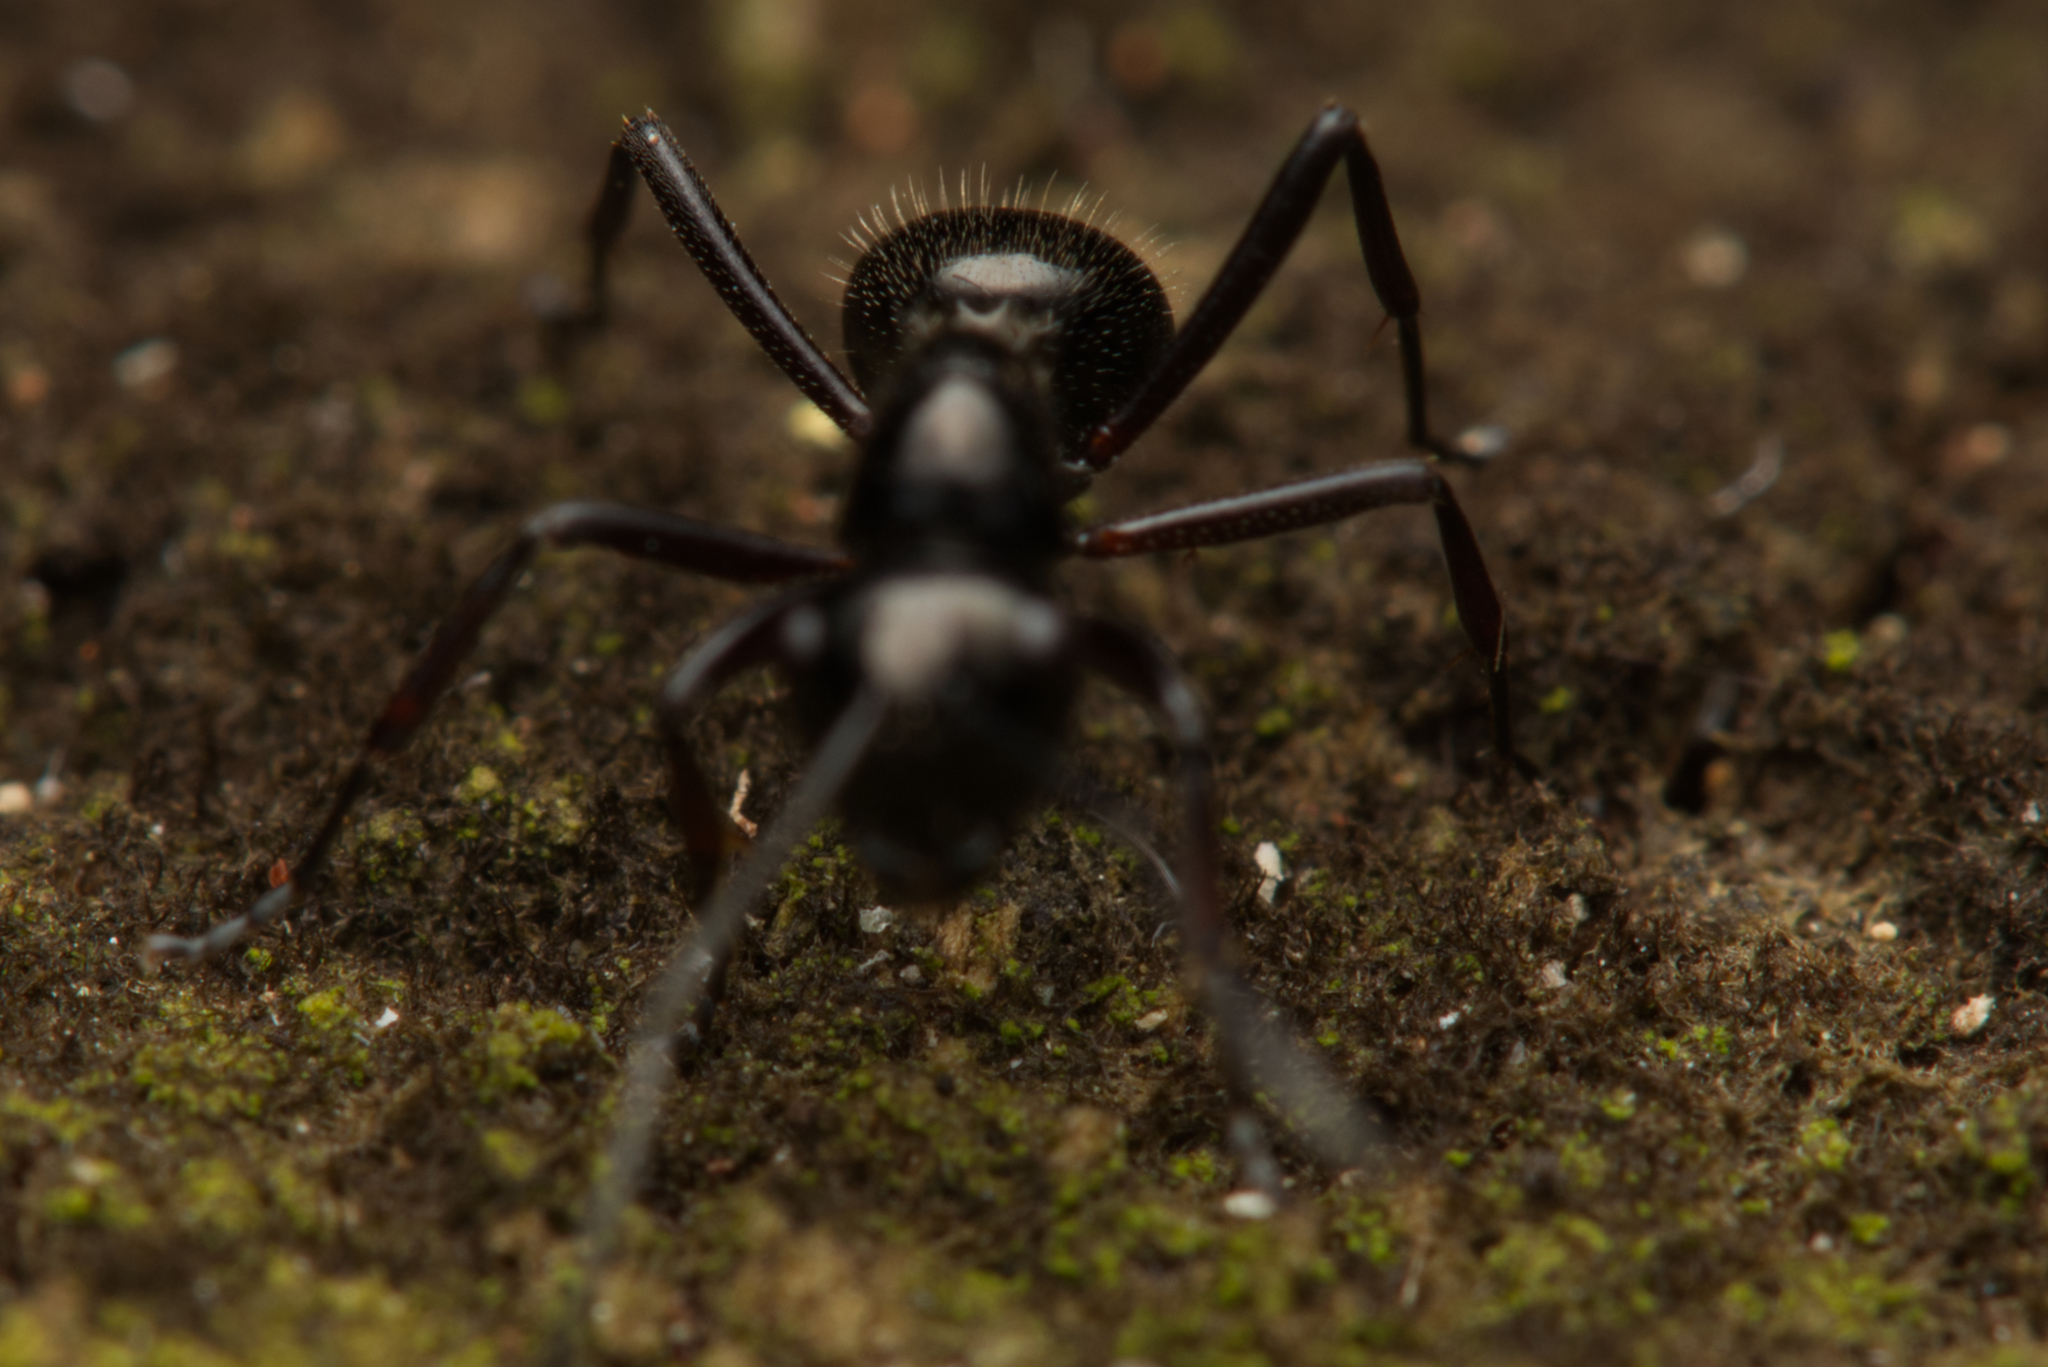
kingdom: Animalia
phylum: Arthropoda
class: Insecta
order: Hymenoptera
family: Formicidae
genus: Polyrhachis
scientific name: Polyrhachis monteithi
